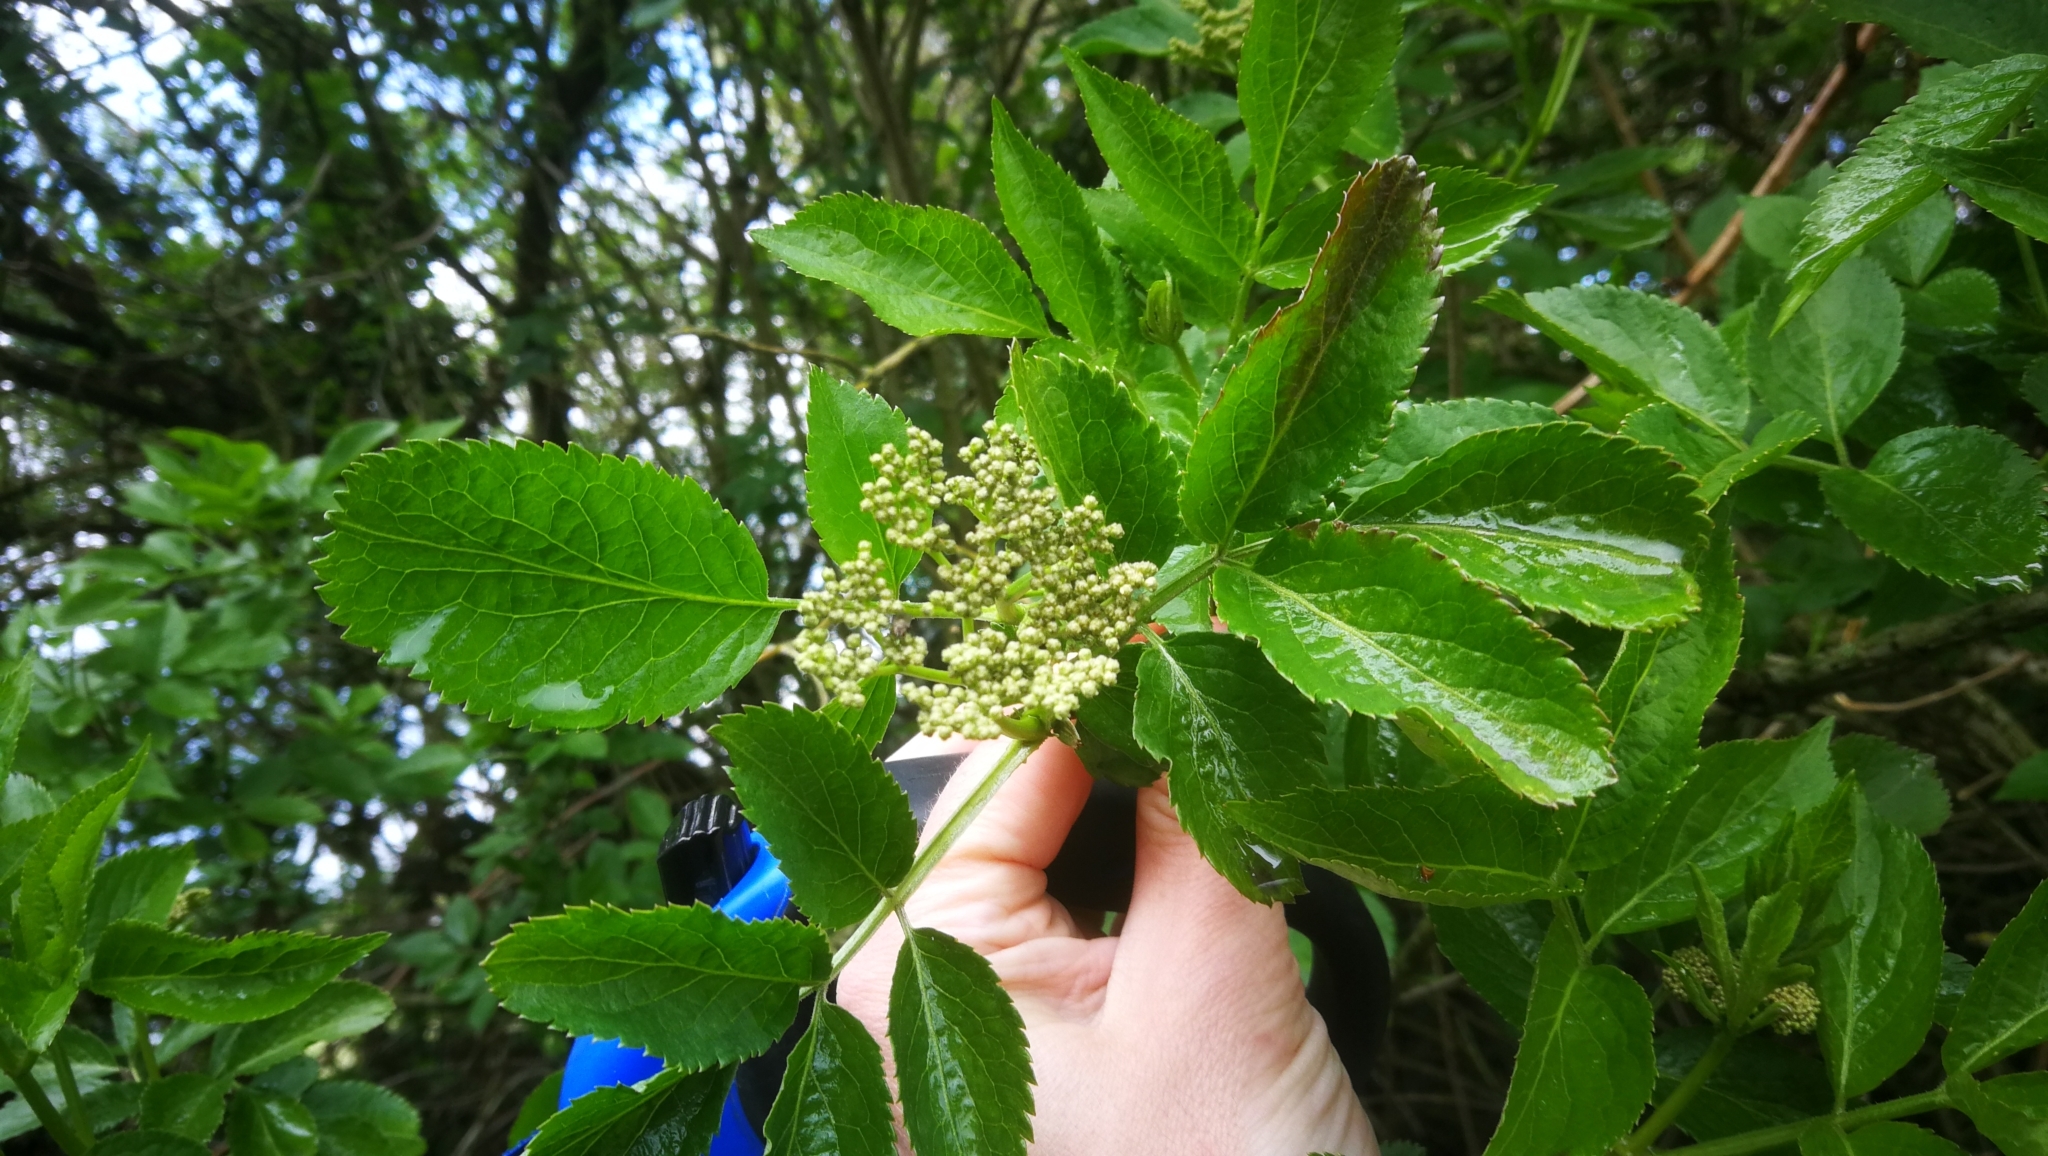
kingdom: Plantae
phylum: Tracheophyta
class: Magnoliopsida
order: Dipsacales
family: Viburnaceae
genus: Sambucus
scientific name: Sambucus nigra
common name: Elder
